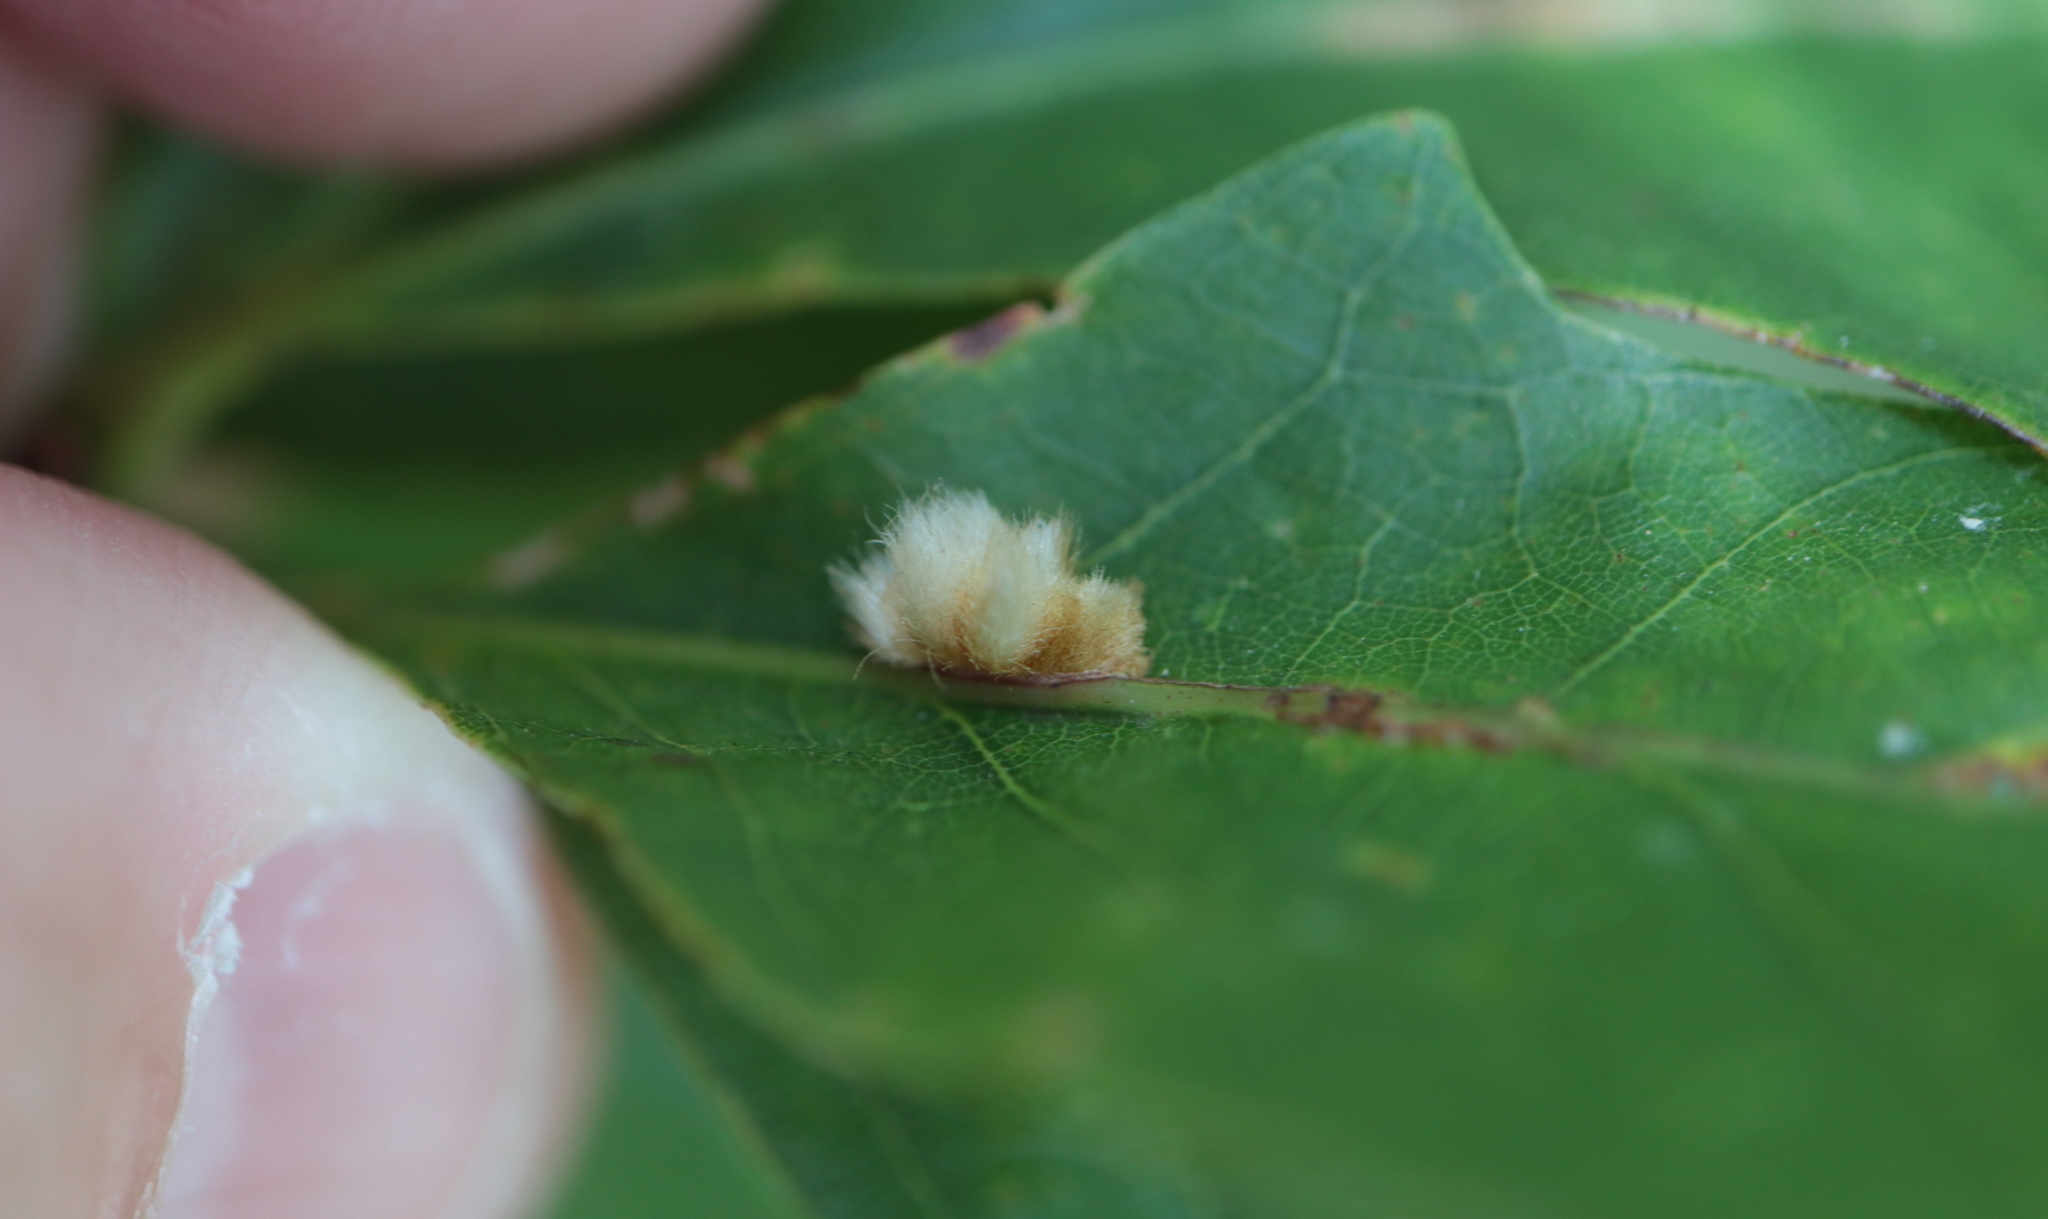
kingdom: Animalia
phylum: Arthropoda
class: Insecta
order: Hymenoptera
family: Cynipidae
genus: Andricus
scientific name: Andricus quercusflocci
